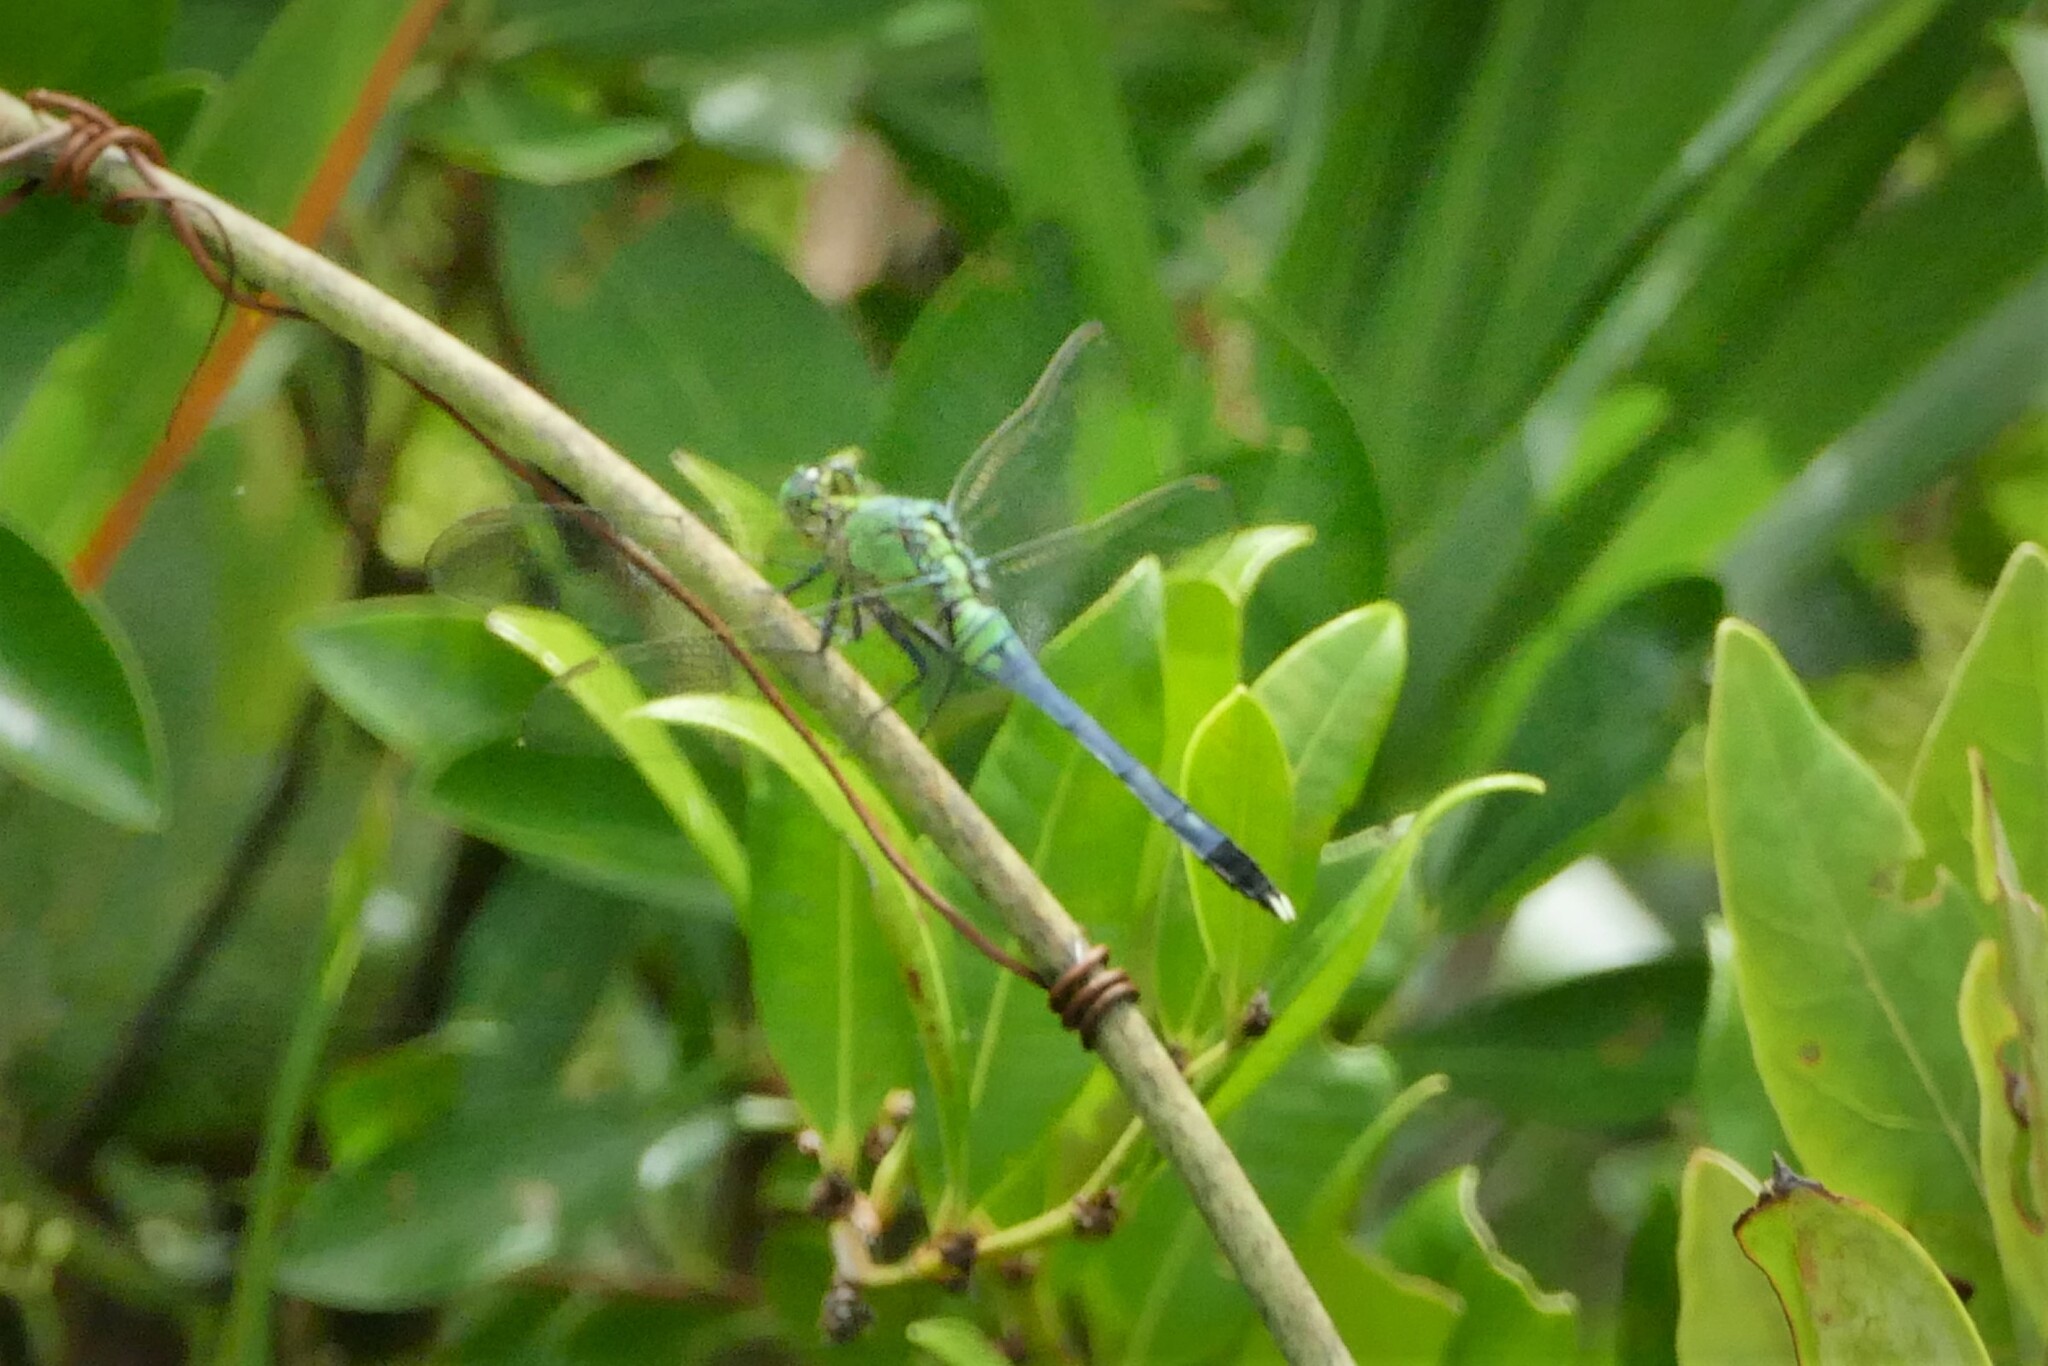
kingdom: Animalia
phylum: Arthropoda
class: Insecta
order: Odonata
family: Libellulidae
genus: Erythemis
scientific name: Erythemis simplicicollis
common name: Eastern pondhawk
